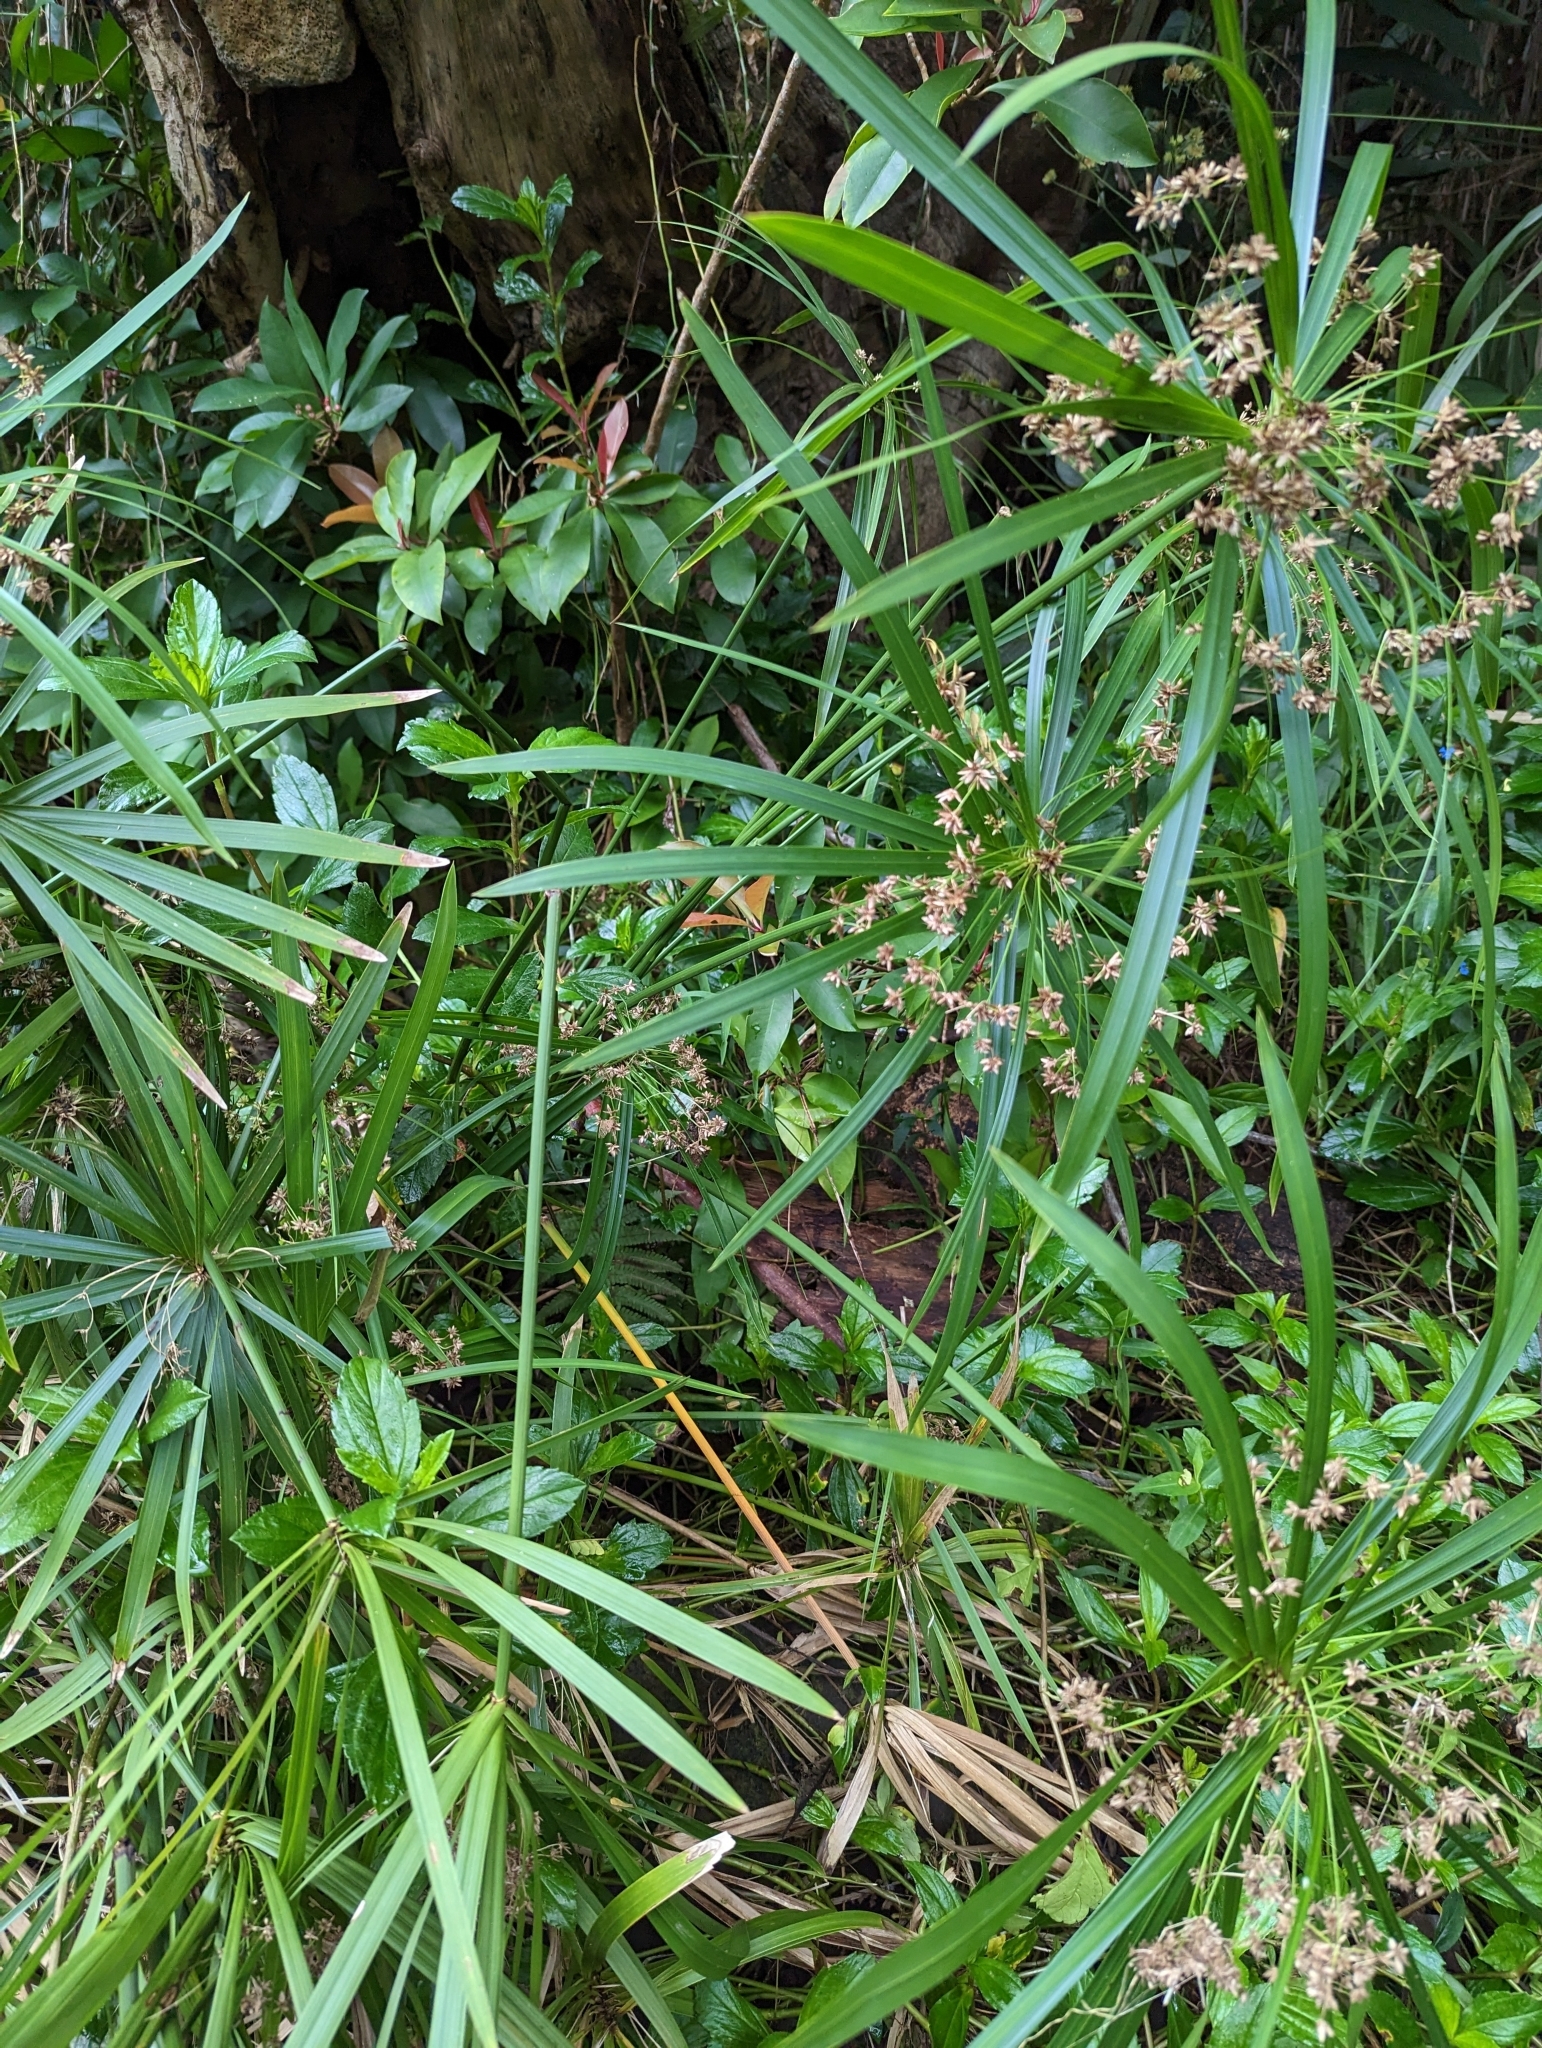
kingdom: Plantae
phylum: Tracheophyta
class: Liliopsida
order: Poales
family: Cyperaceae
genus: Cyperus
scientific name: Cyperus alternifolius
